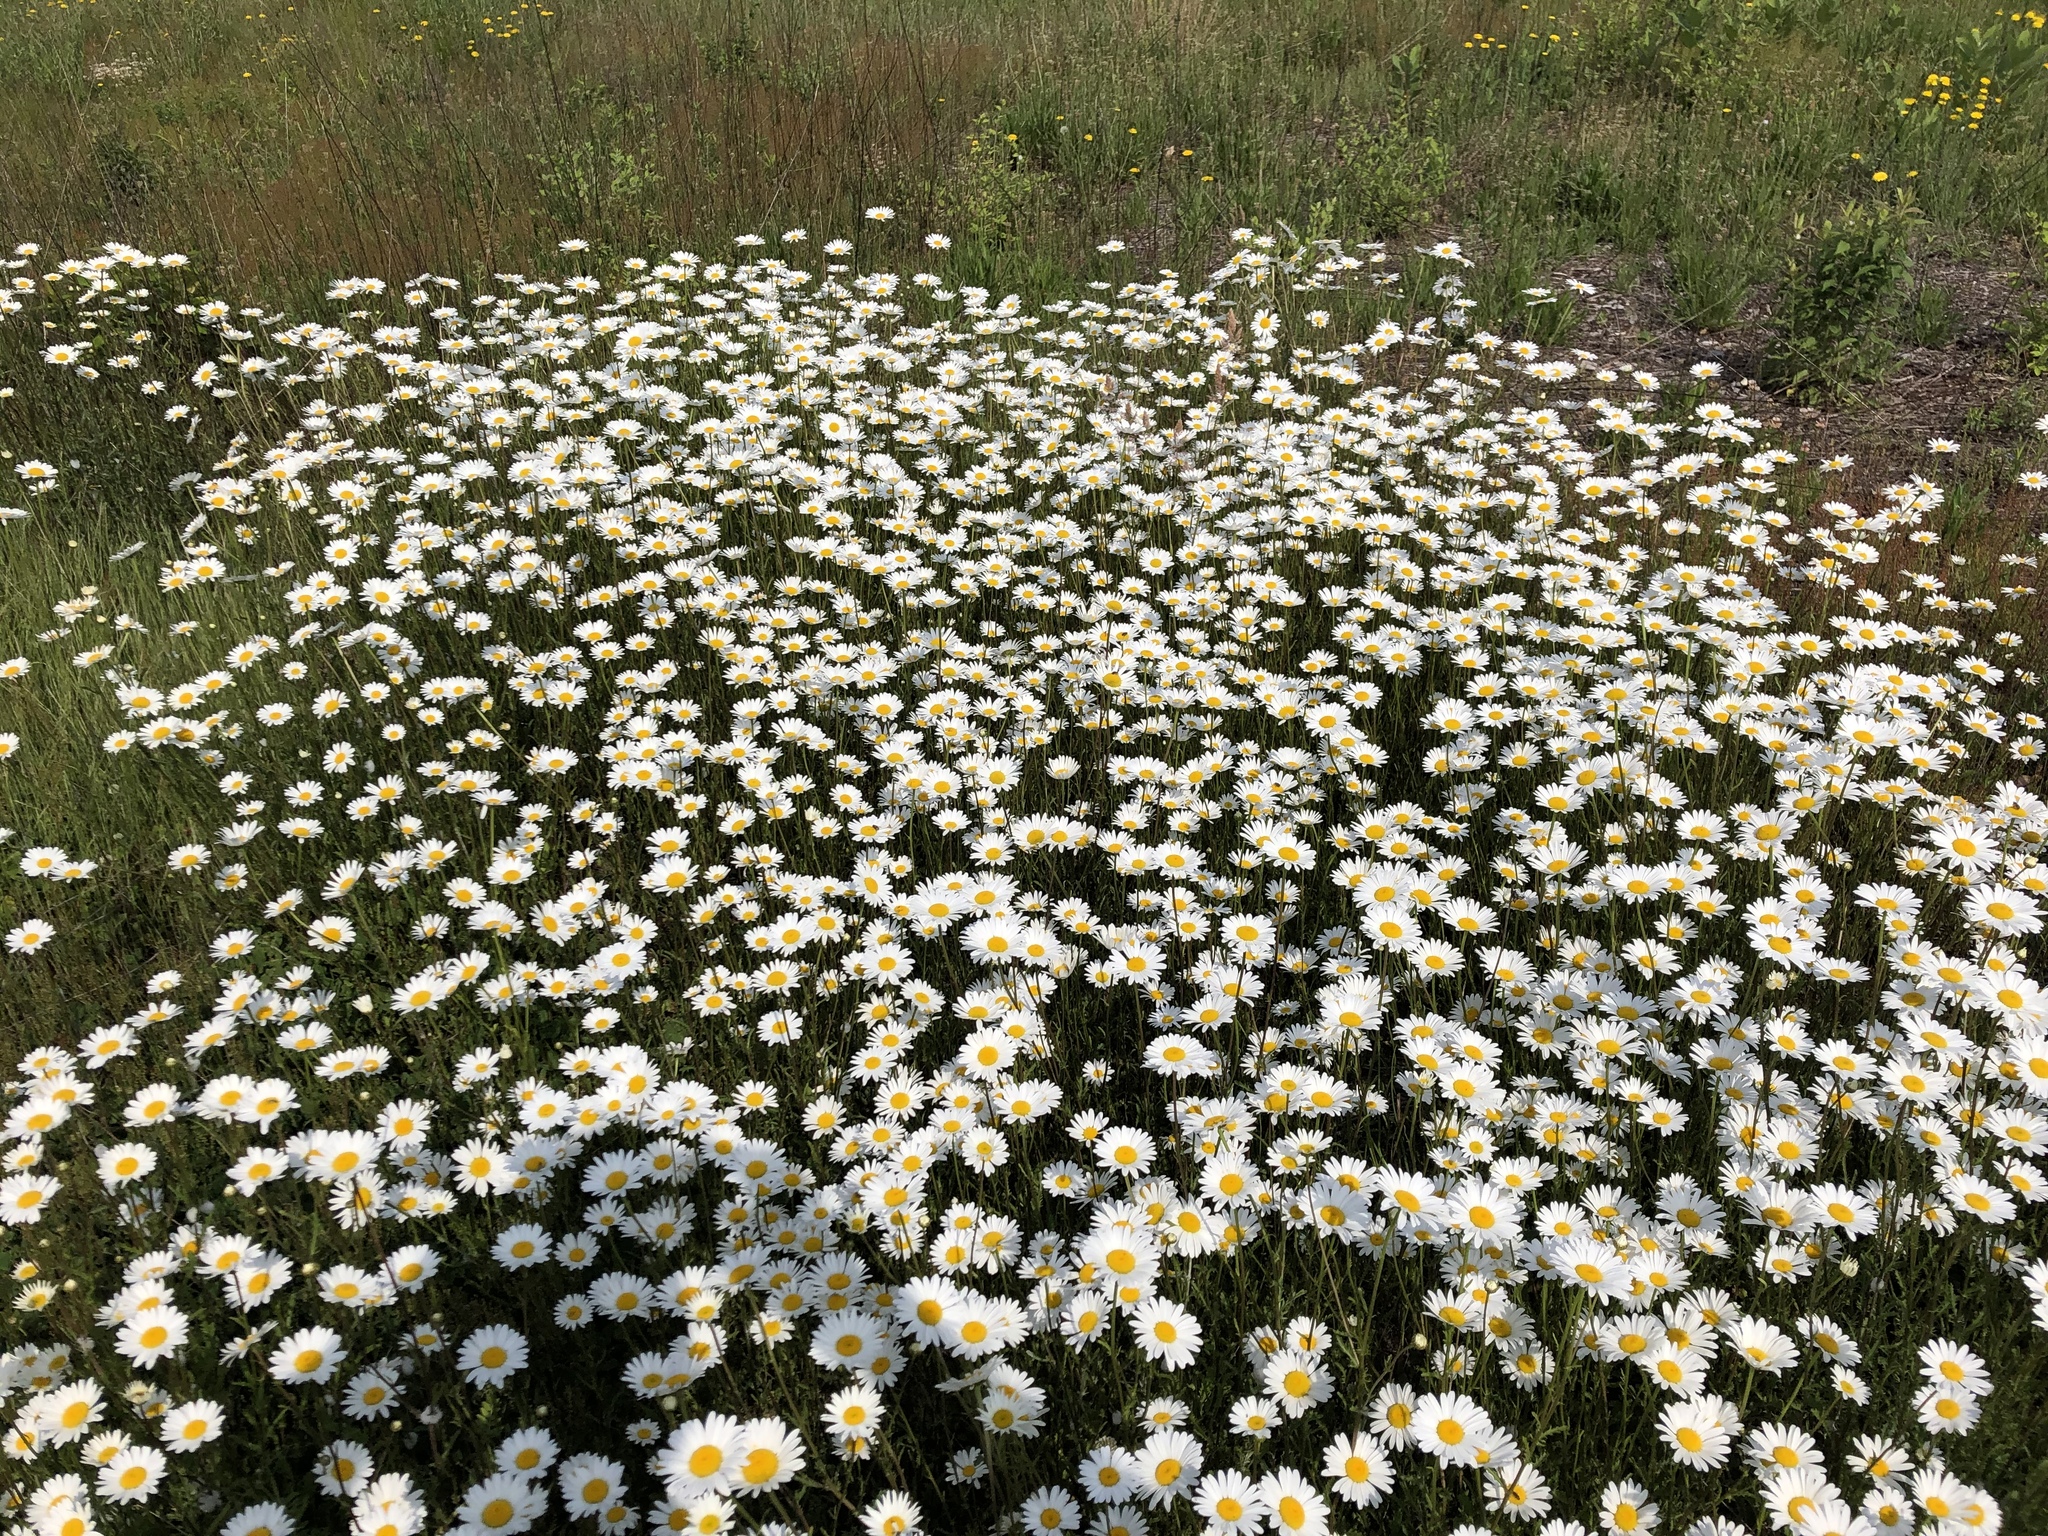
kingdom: Plantae
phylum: Tracheophyta
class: Magnoliopsida
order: Asterales
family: Asteraceae
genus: Leucanthemum
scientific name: Leucanthemum vulgare
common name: Oxeye daisy
